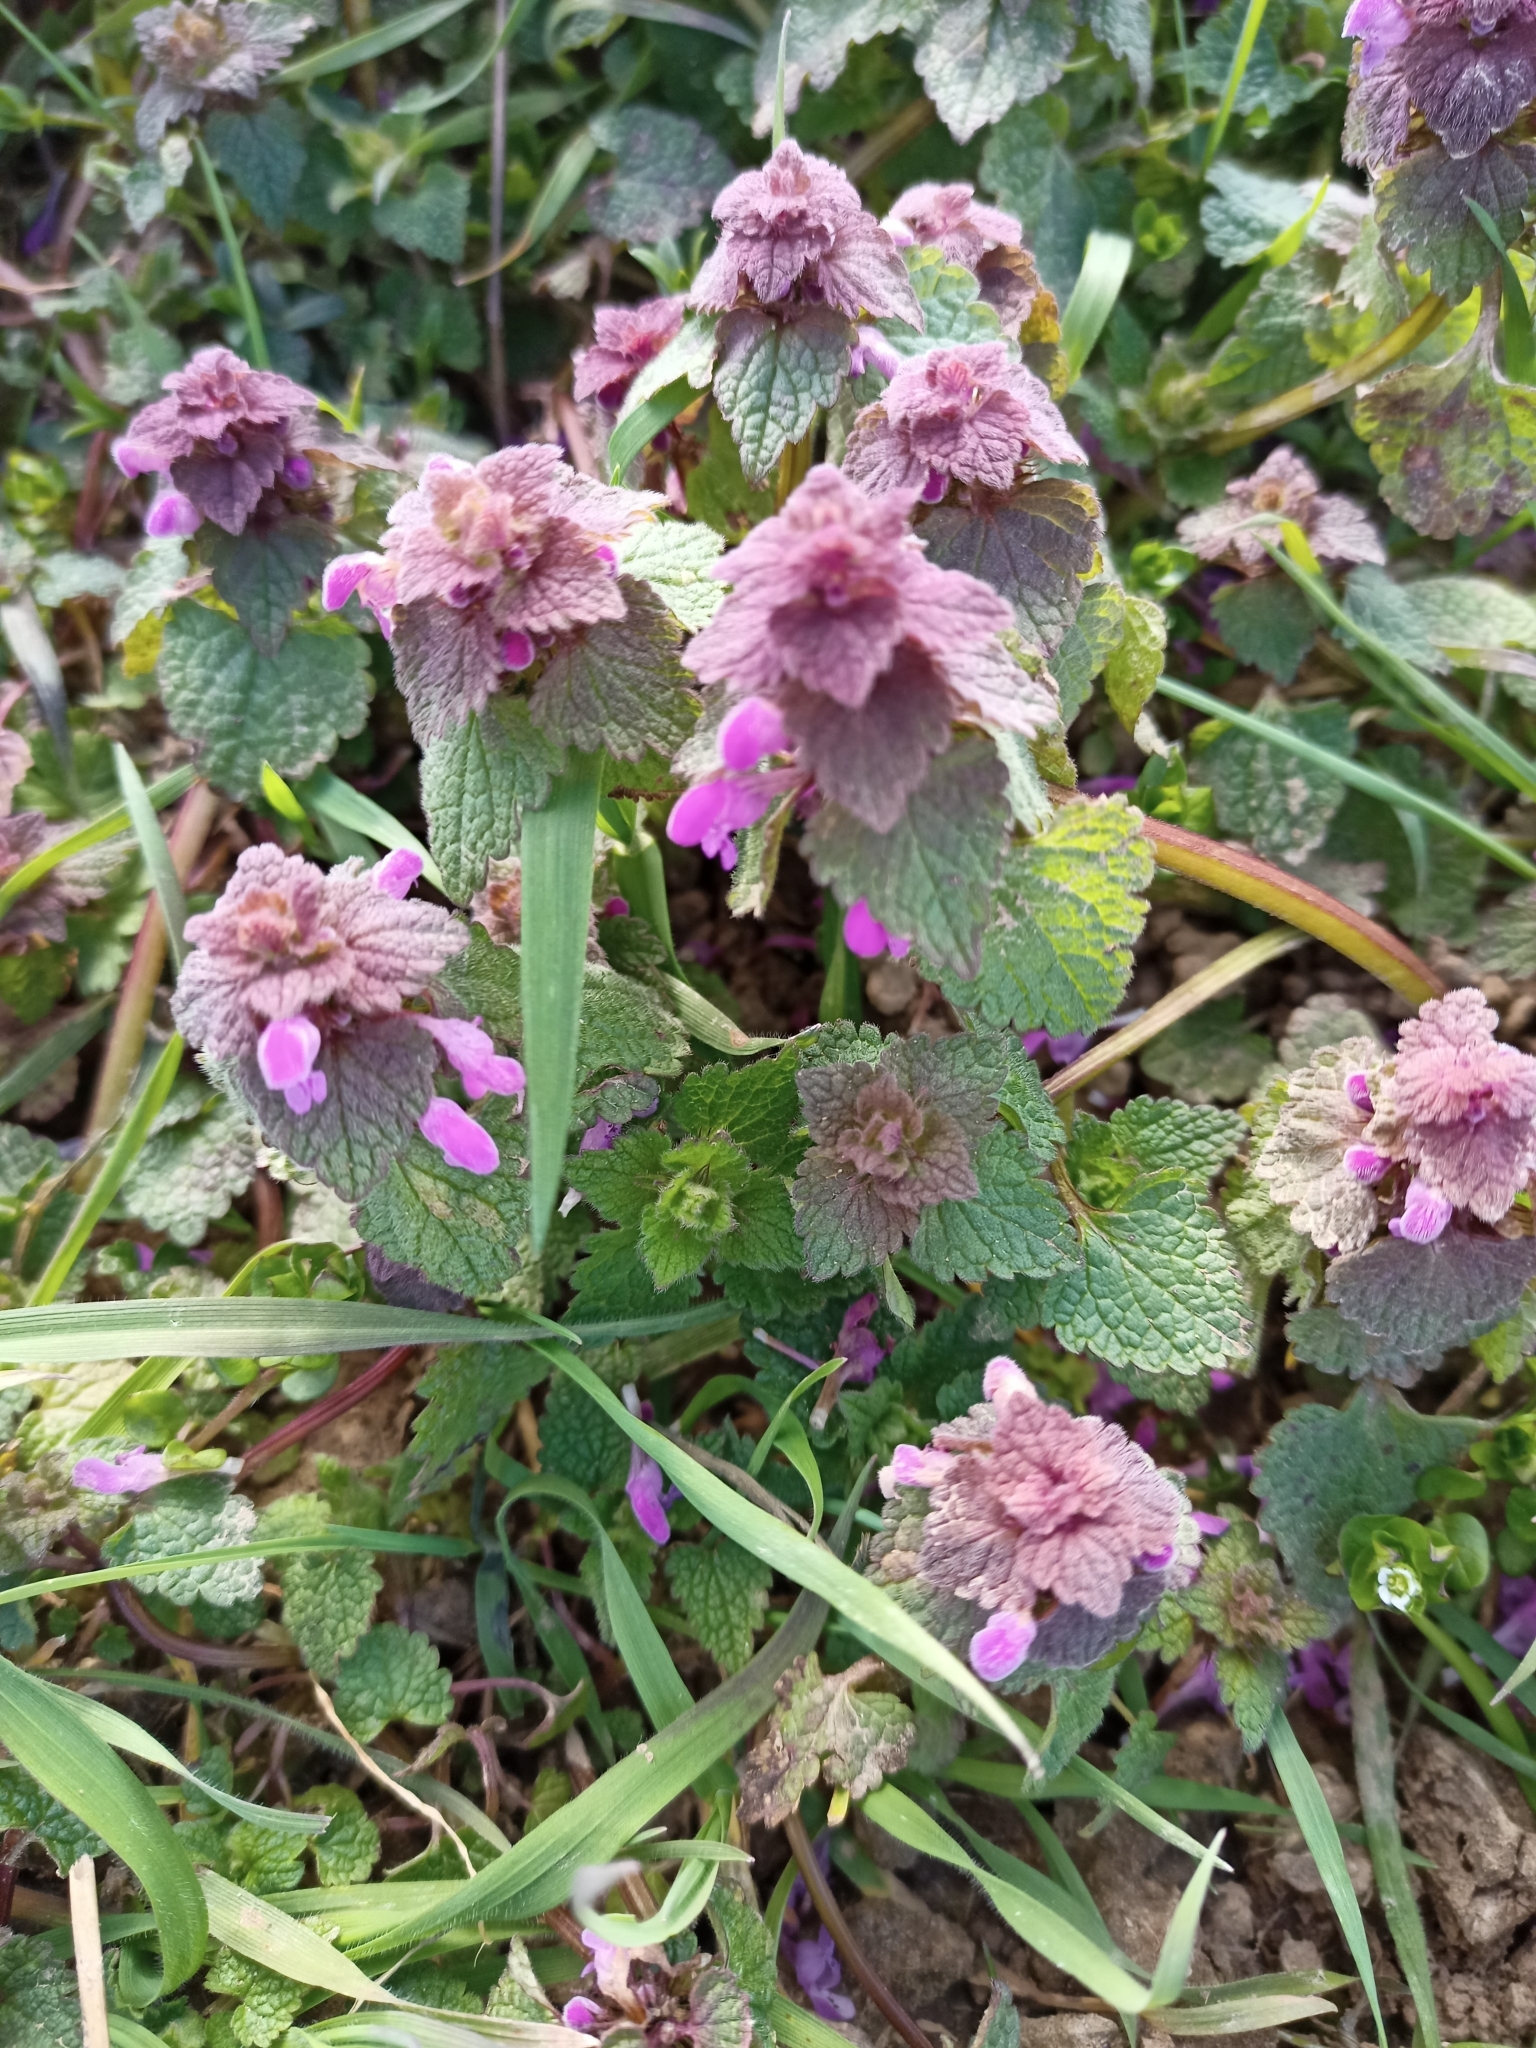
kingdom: Plantae
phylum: Tracheophyta
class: Magnoliopsida
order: Lamiales
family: Lamiaceae
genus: Lamium
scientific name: Lamium purpureum
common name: Red dead-nettle
